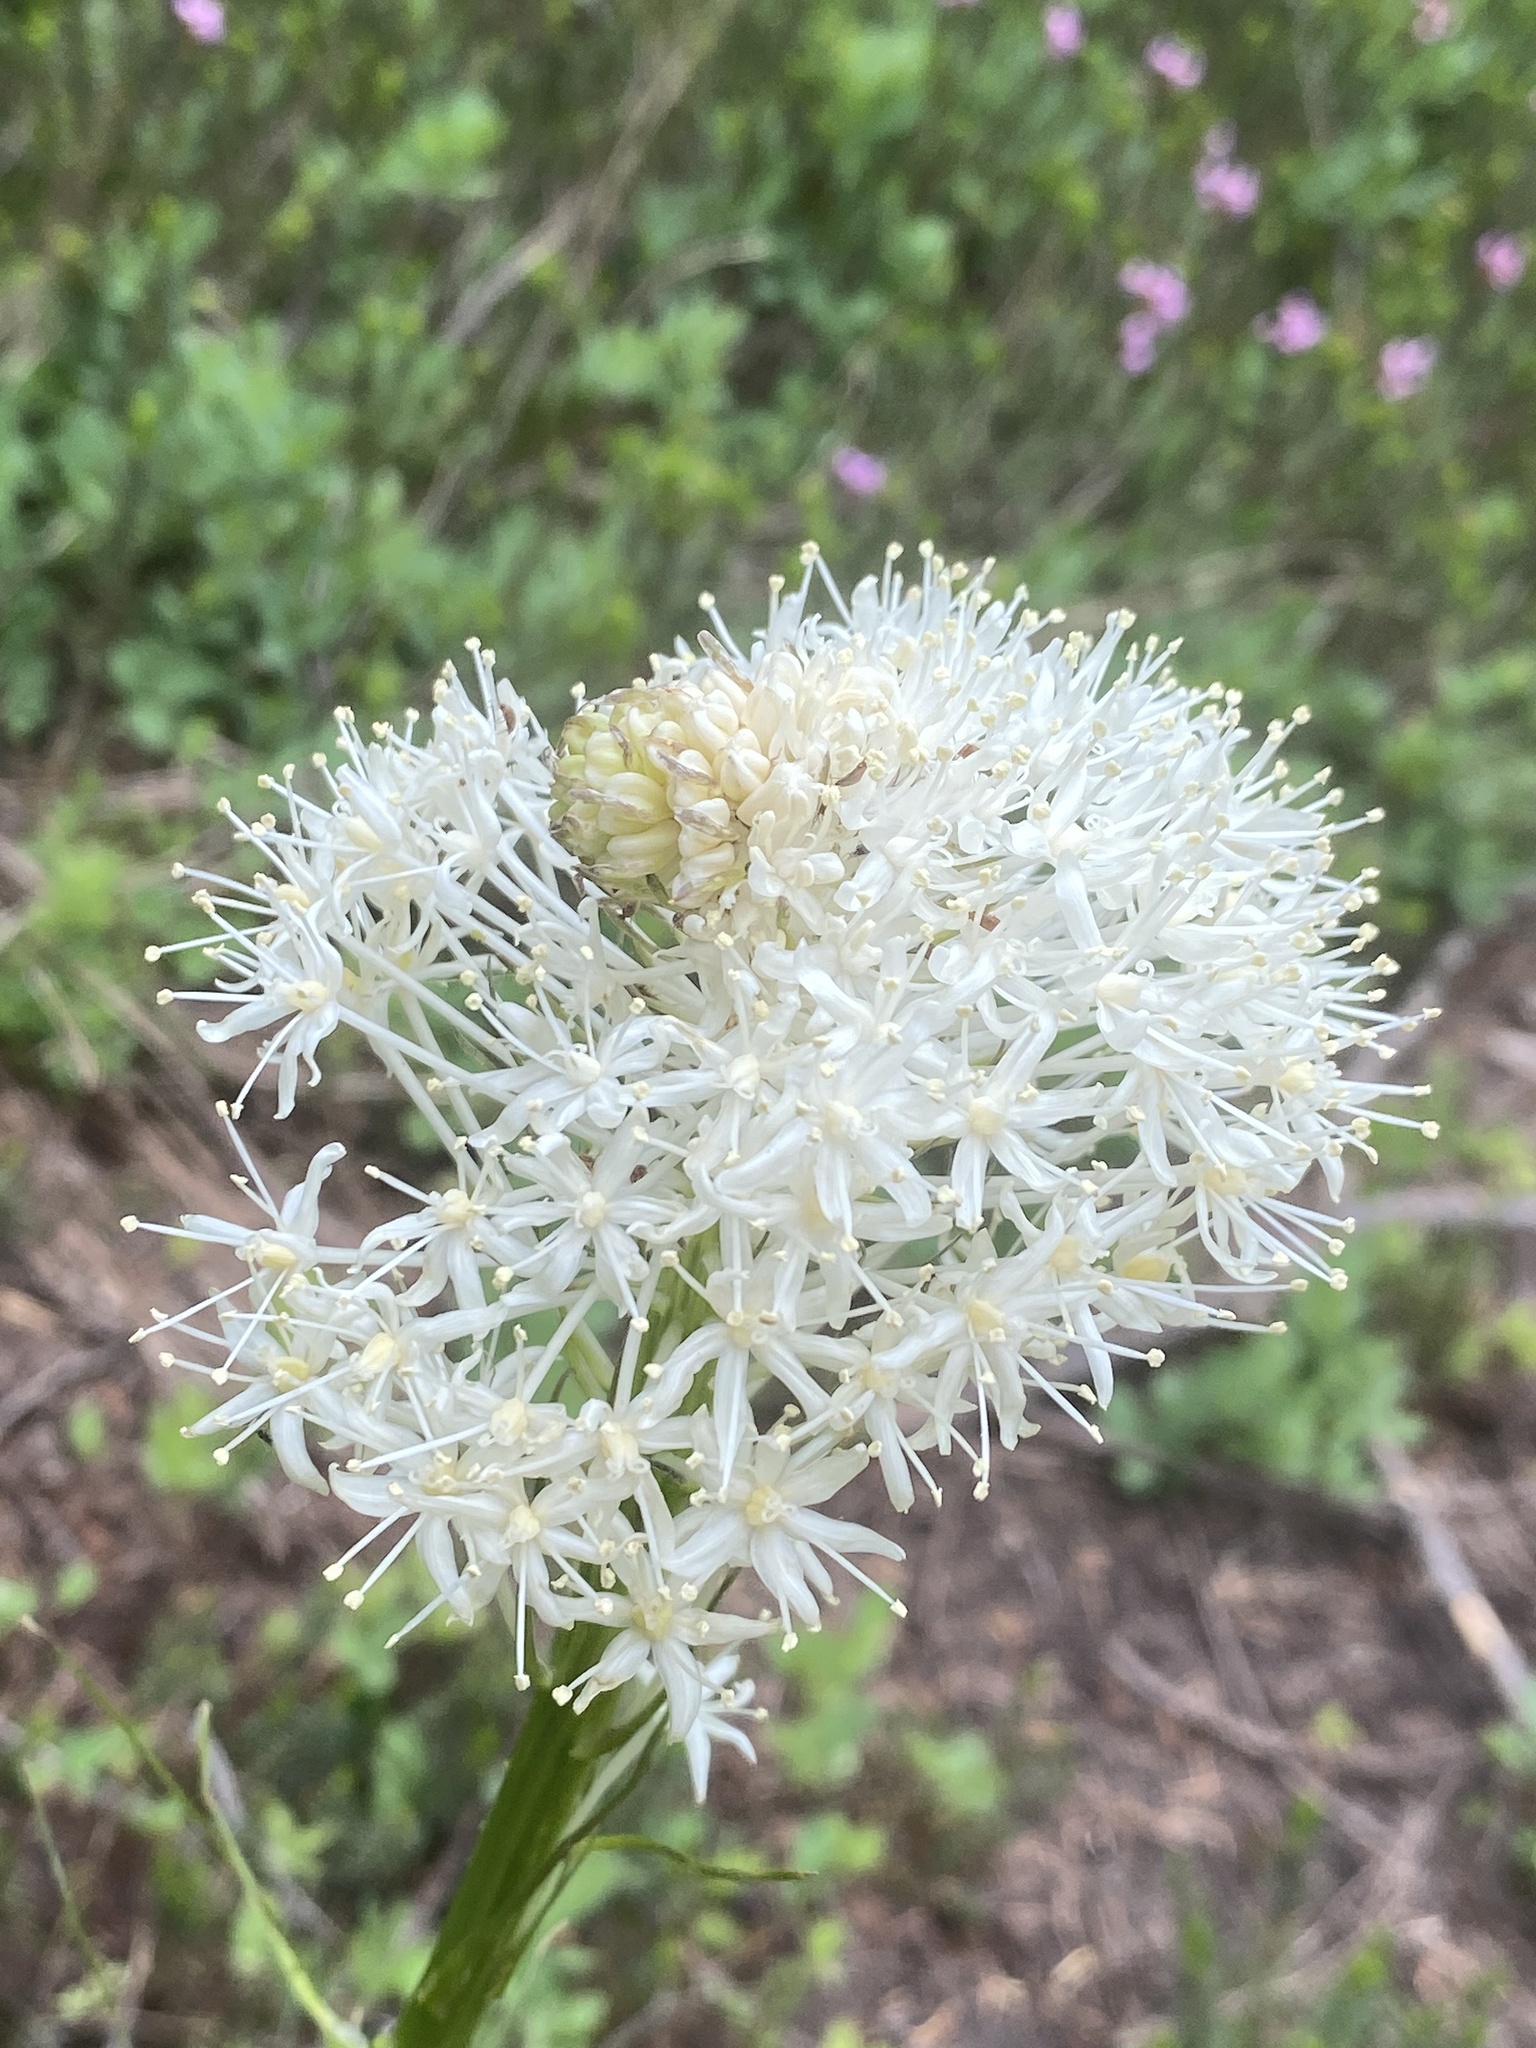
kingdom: Plantae
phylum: Tracheophyta
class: Liliopsida
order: Liliales
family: Melanthiaceae
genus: Xerophyllum
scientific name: Xerophyllum tenax
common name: Bear-grass
